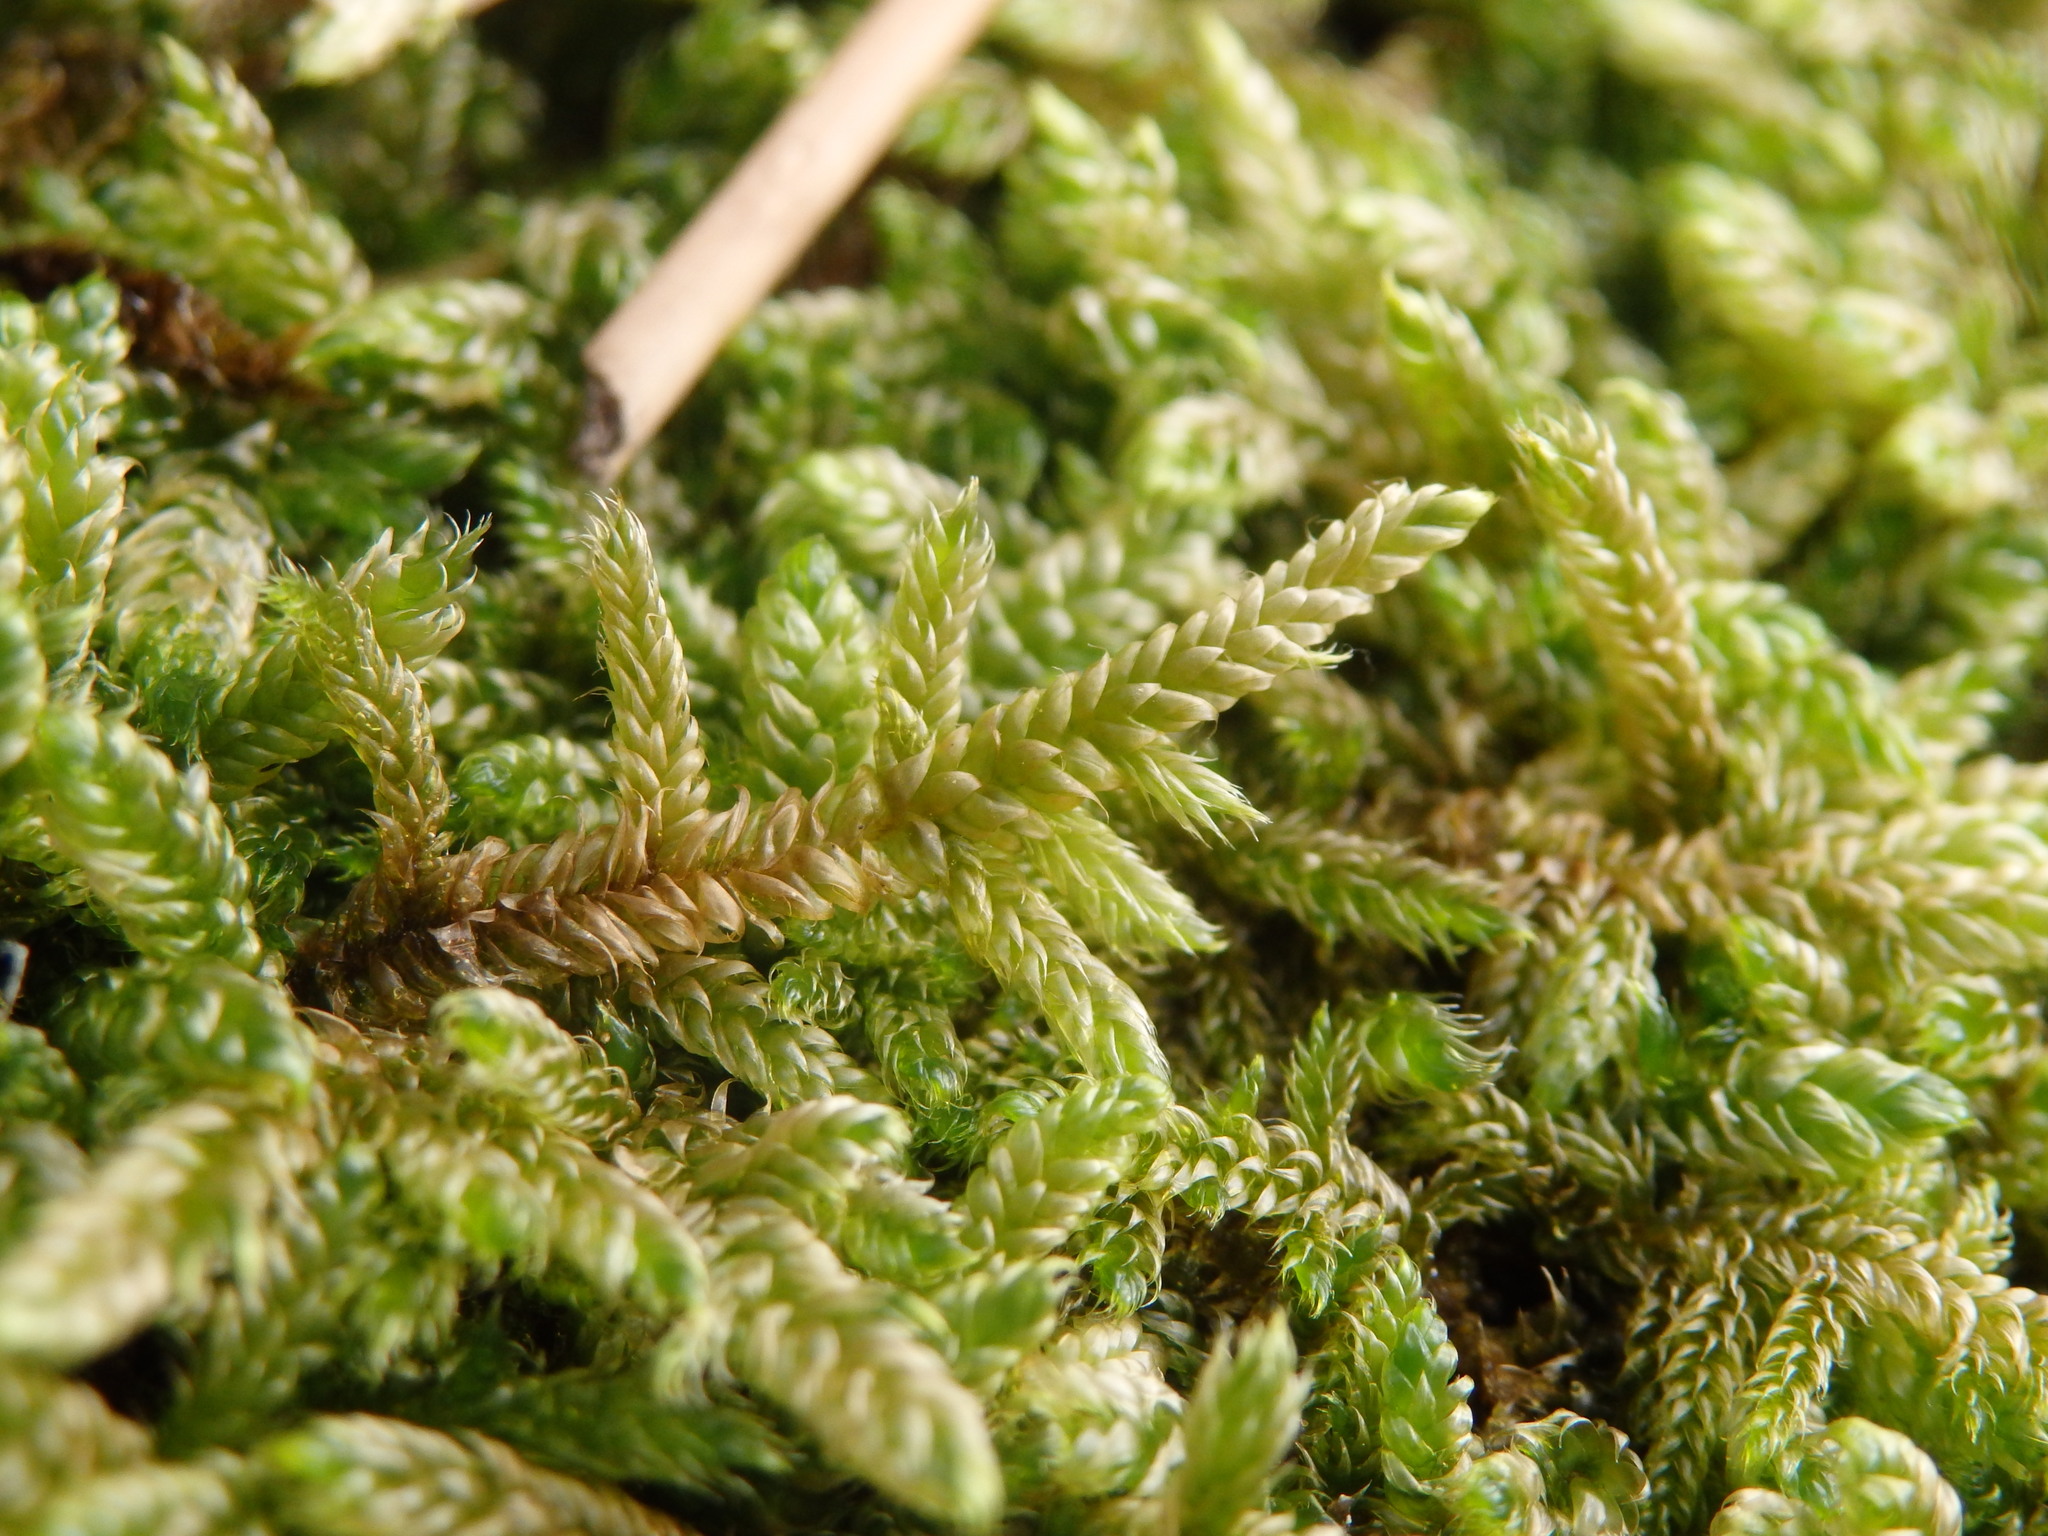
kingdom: Plantae
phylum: Bryophyta
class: Bryopsida
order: Hypnales
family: Hypnaceae
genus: Hypnum
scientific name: Hypnum cupressiforme
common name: Cypress-leaved plait-moss
